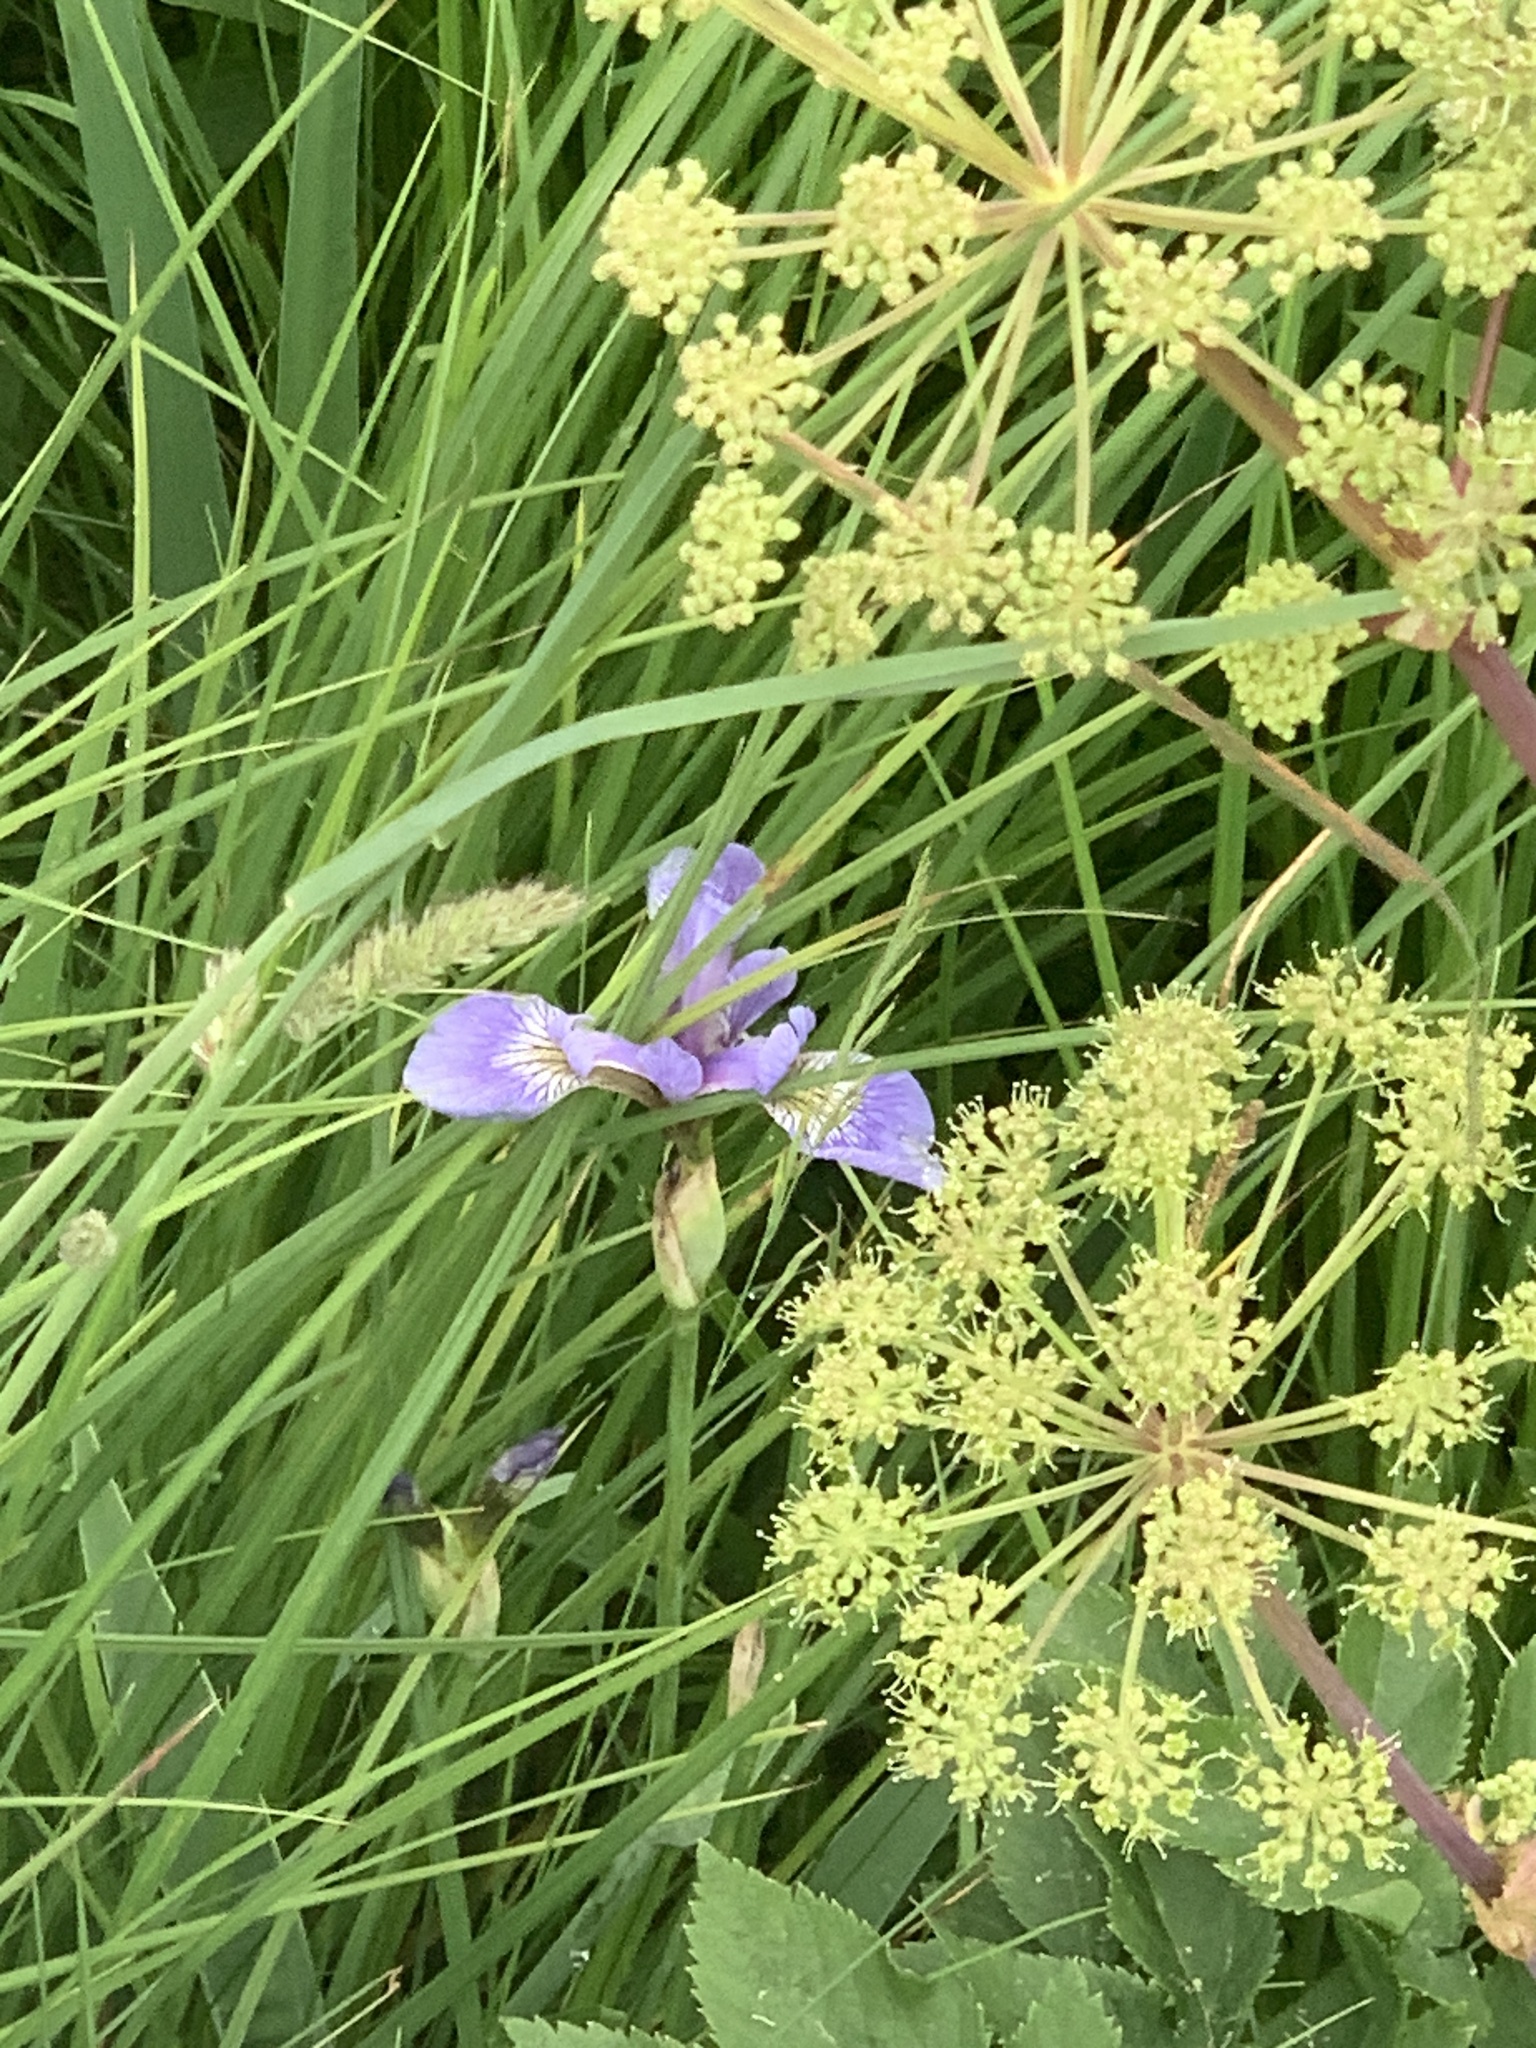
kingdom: Plantae
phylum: Tracheophyta
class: Liliopsida
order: Asparagales
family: Iridaceae
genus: Iris
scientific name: Iris versicolor
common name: Purple iris
